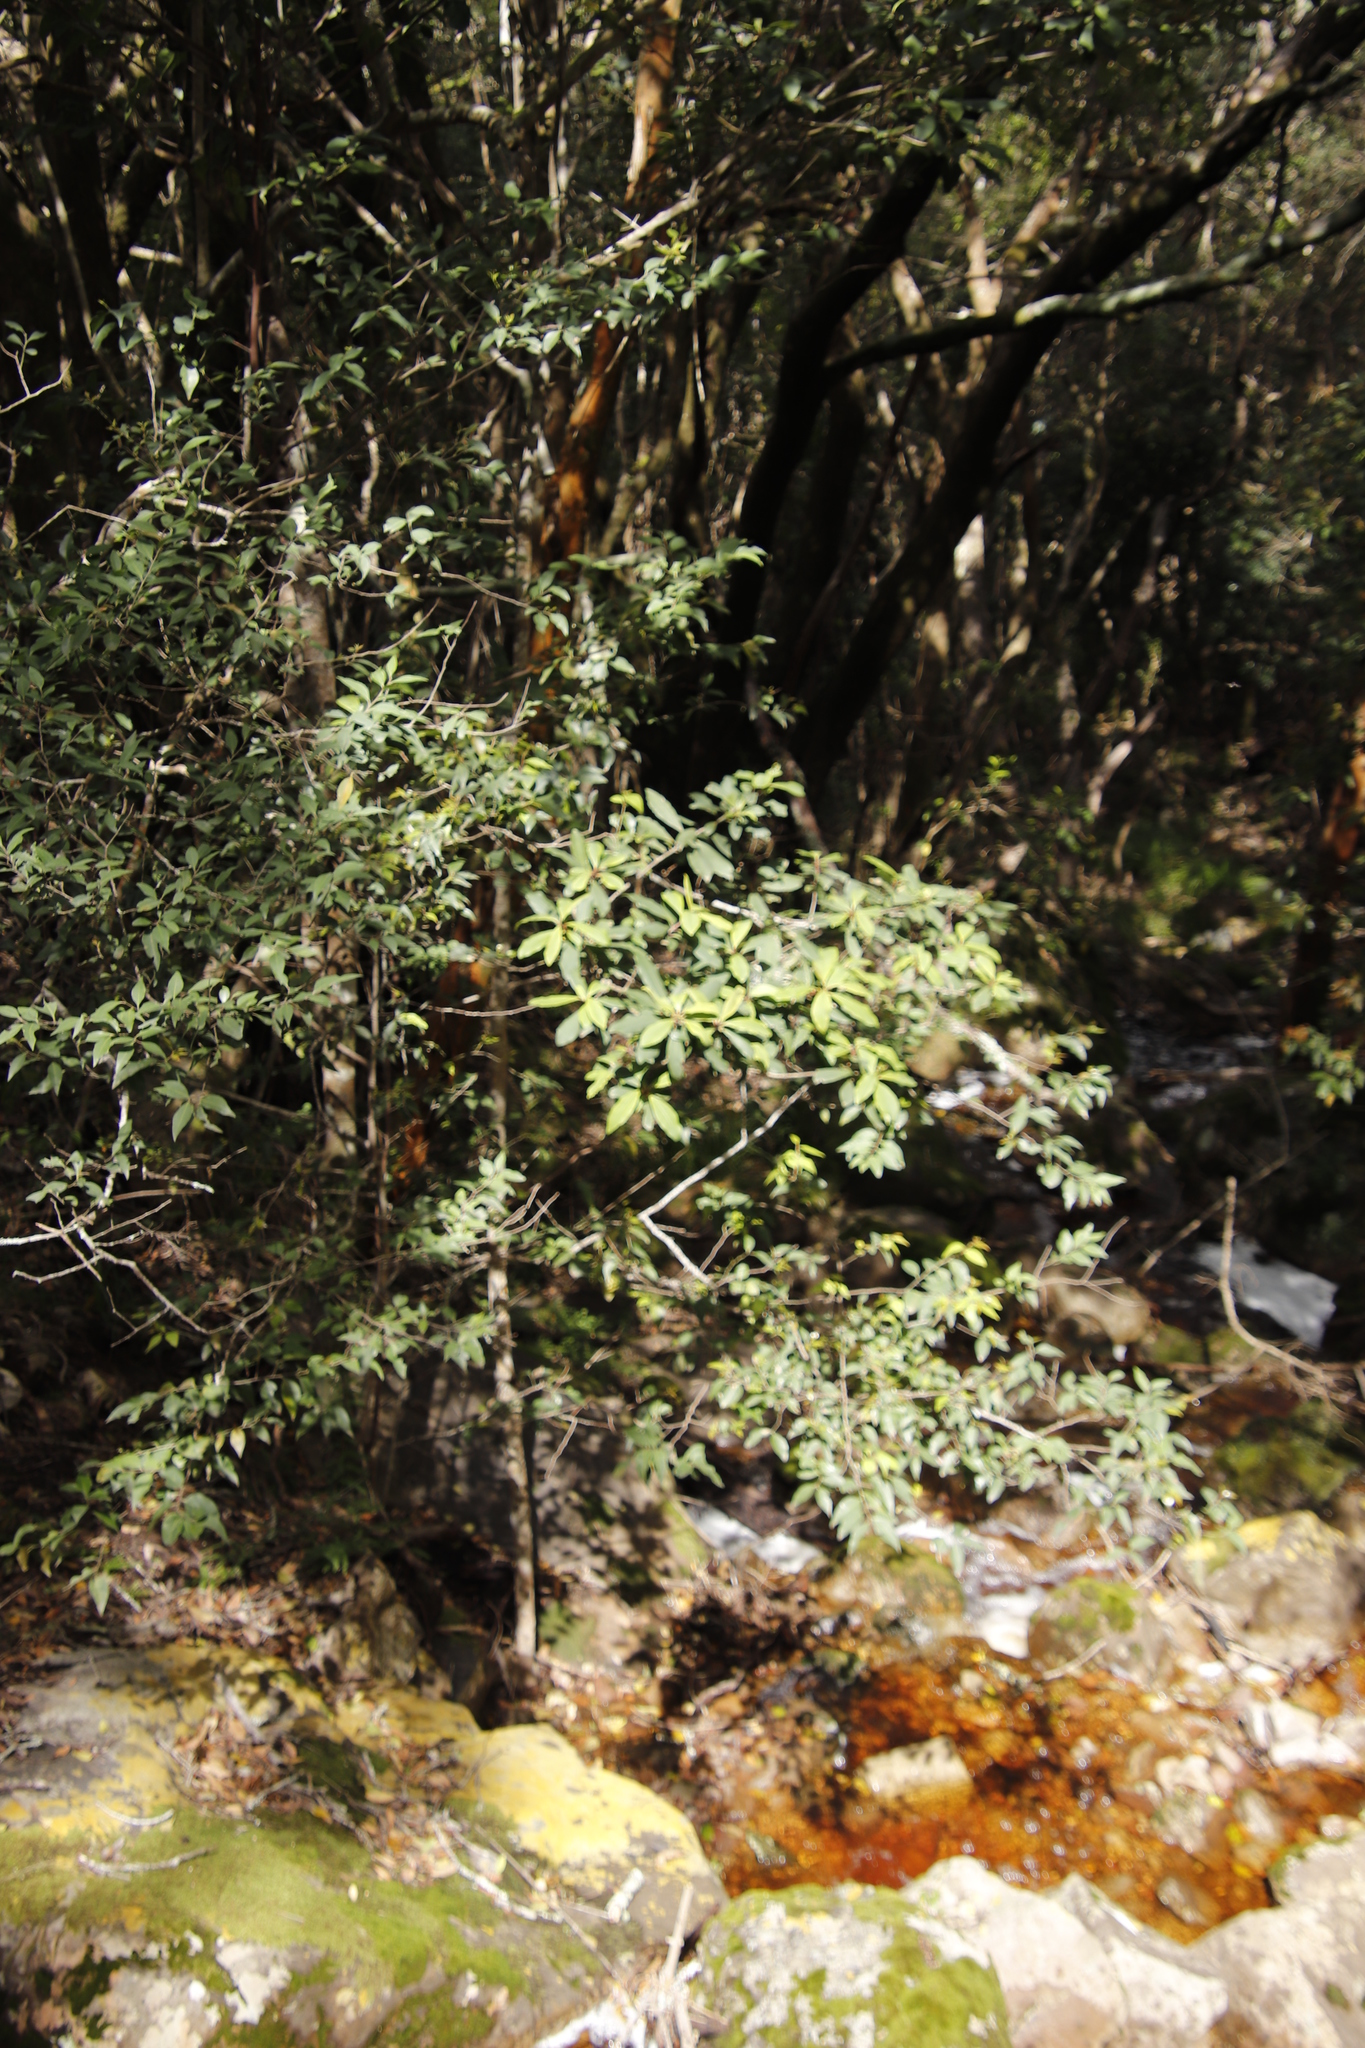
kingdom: Plantae
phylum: Tracheophyta
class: Magnoliopsida
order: Ericales
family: Primulaceae
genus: Myrsine
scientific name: Myrsine melanophloeos
